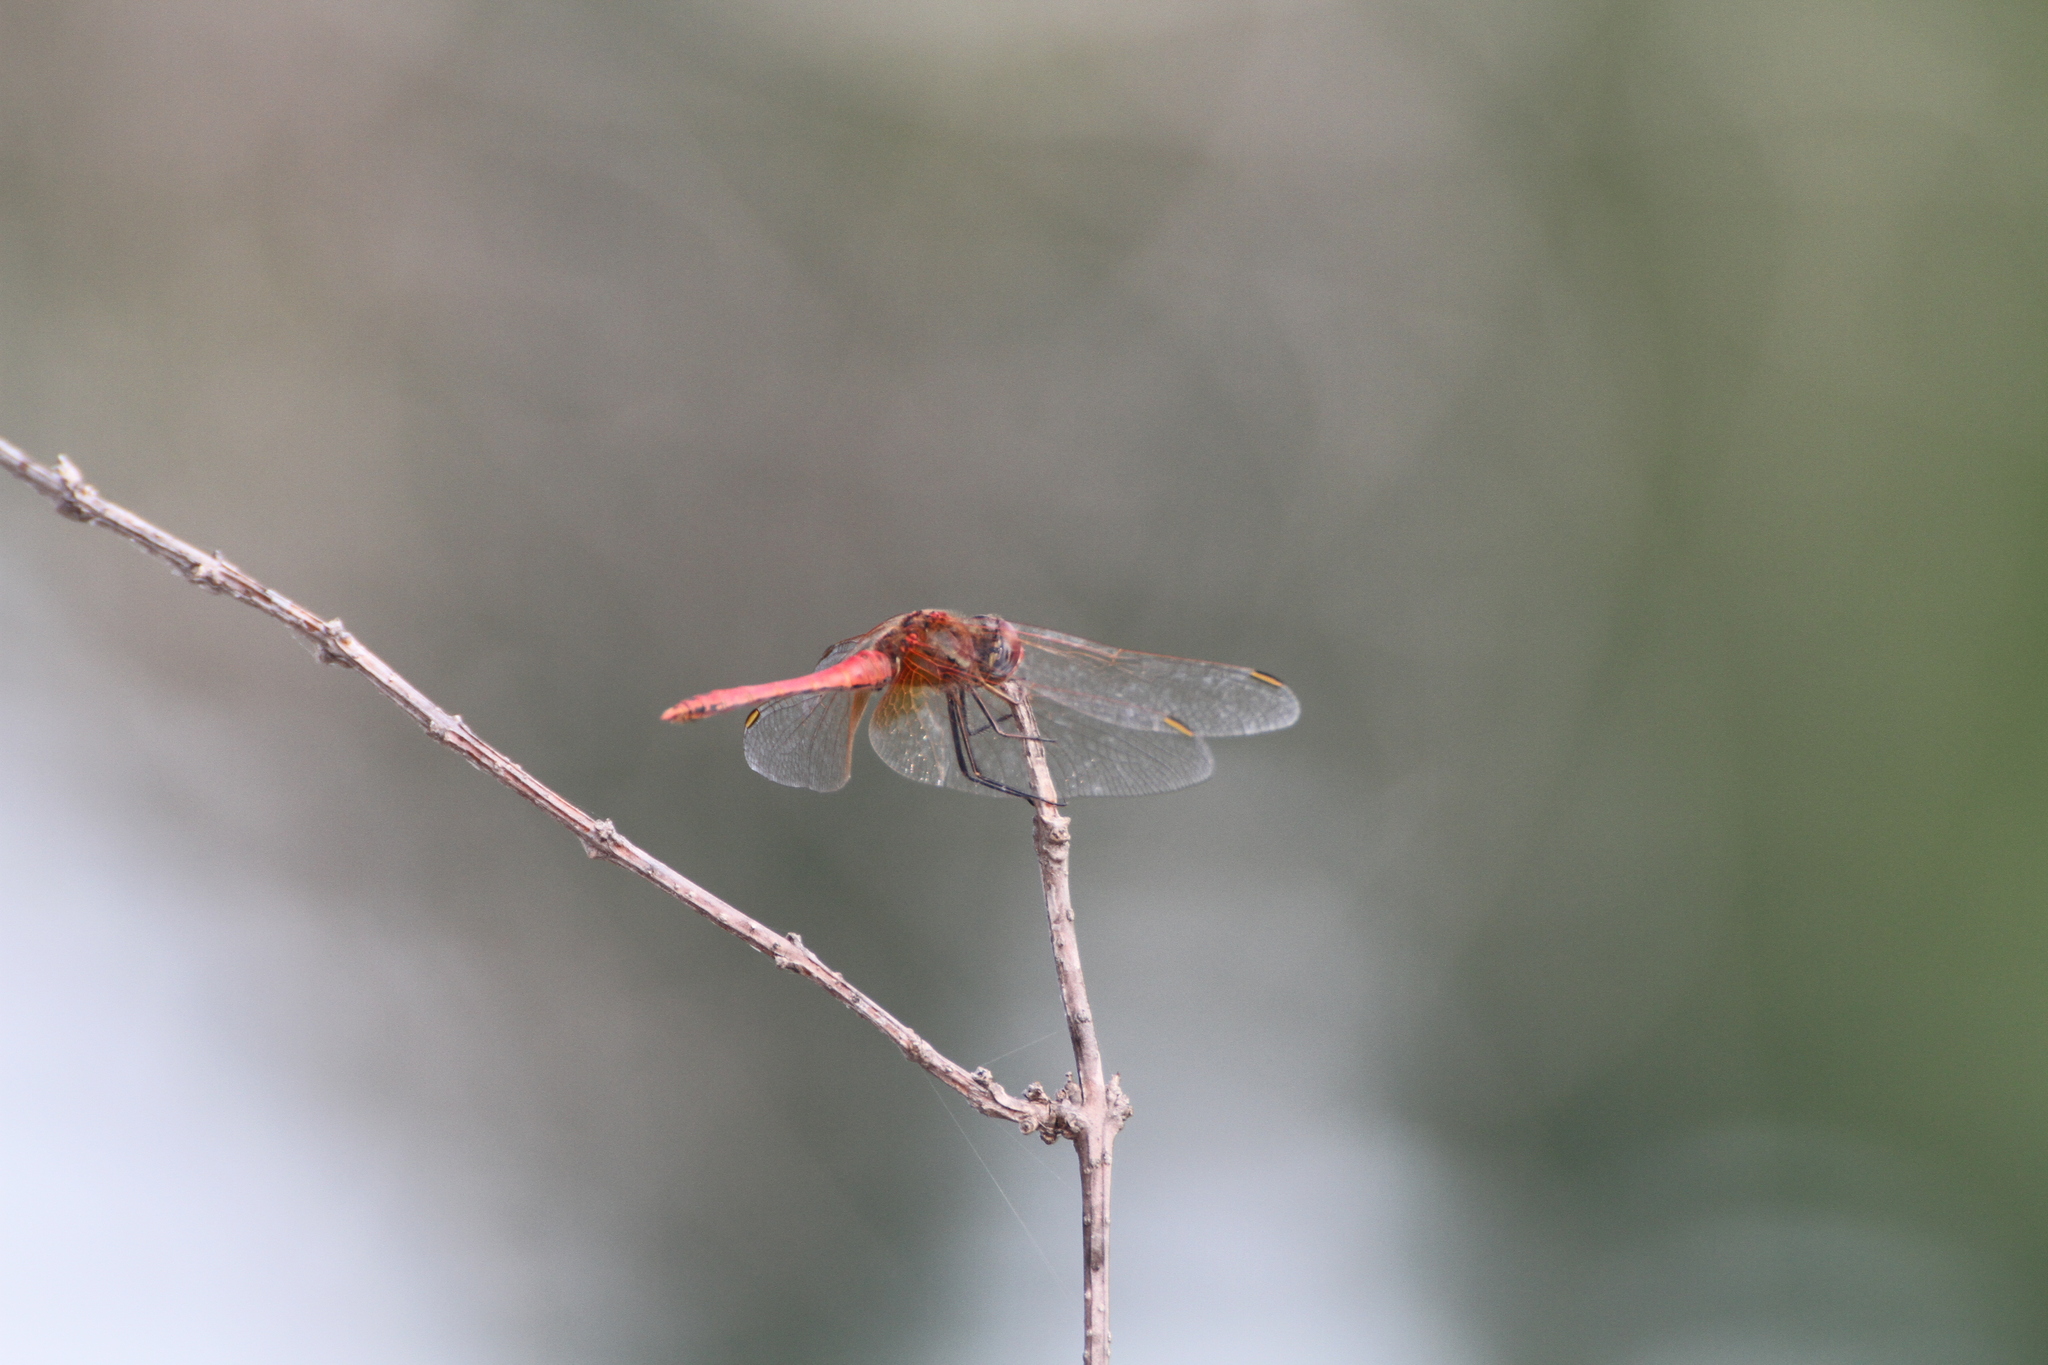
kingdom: Animalia
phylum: Arthropoda
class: Insecta
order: Odonata
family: Libellulidae
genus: Sympetrum
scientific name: Sympetrum fonscolombii
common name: Red-veined darter
